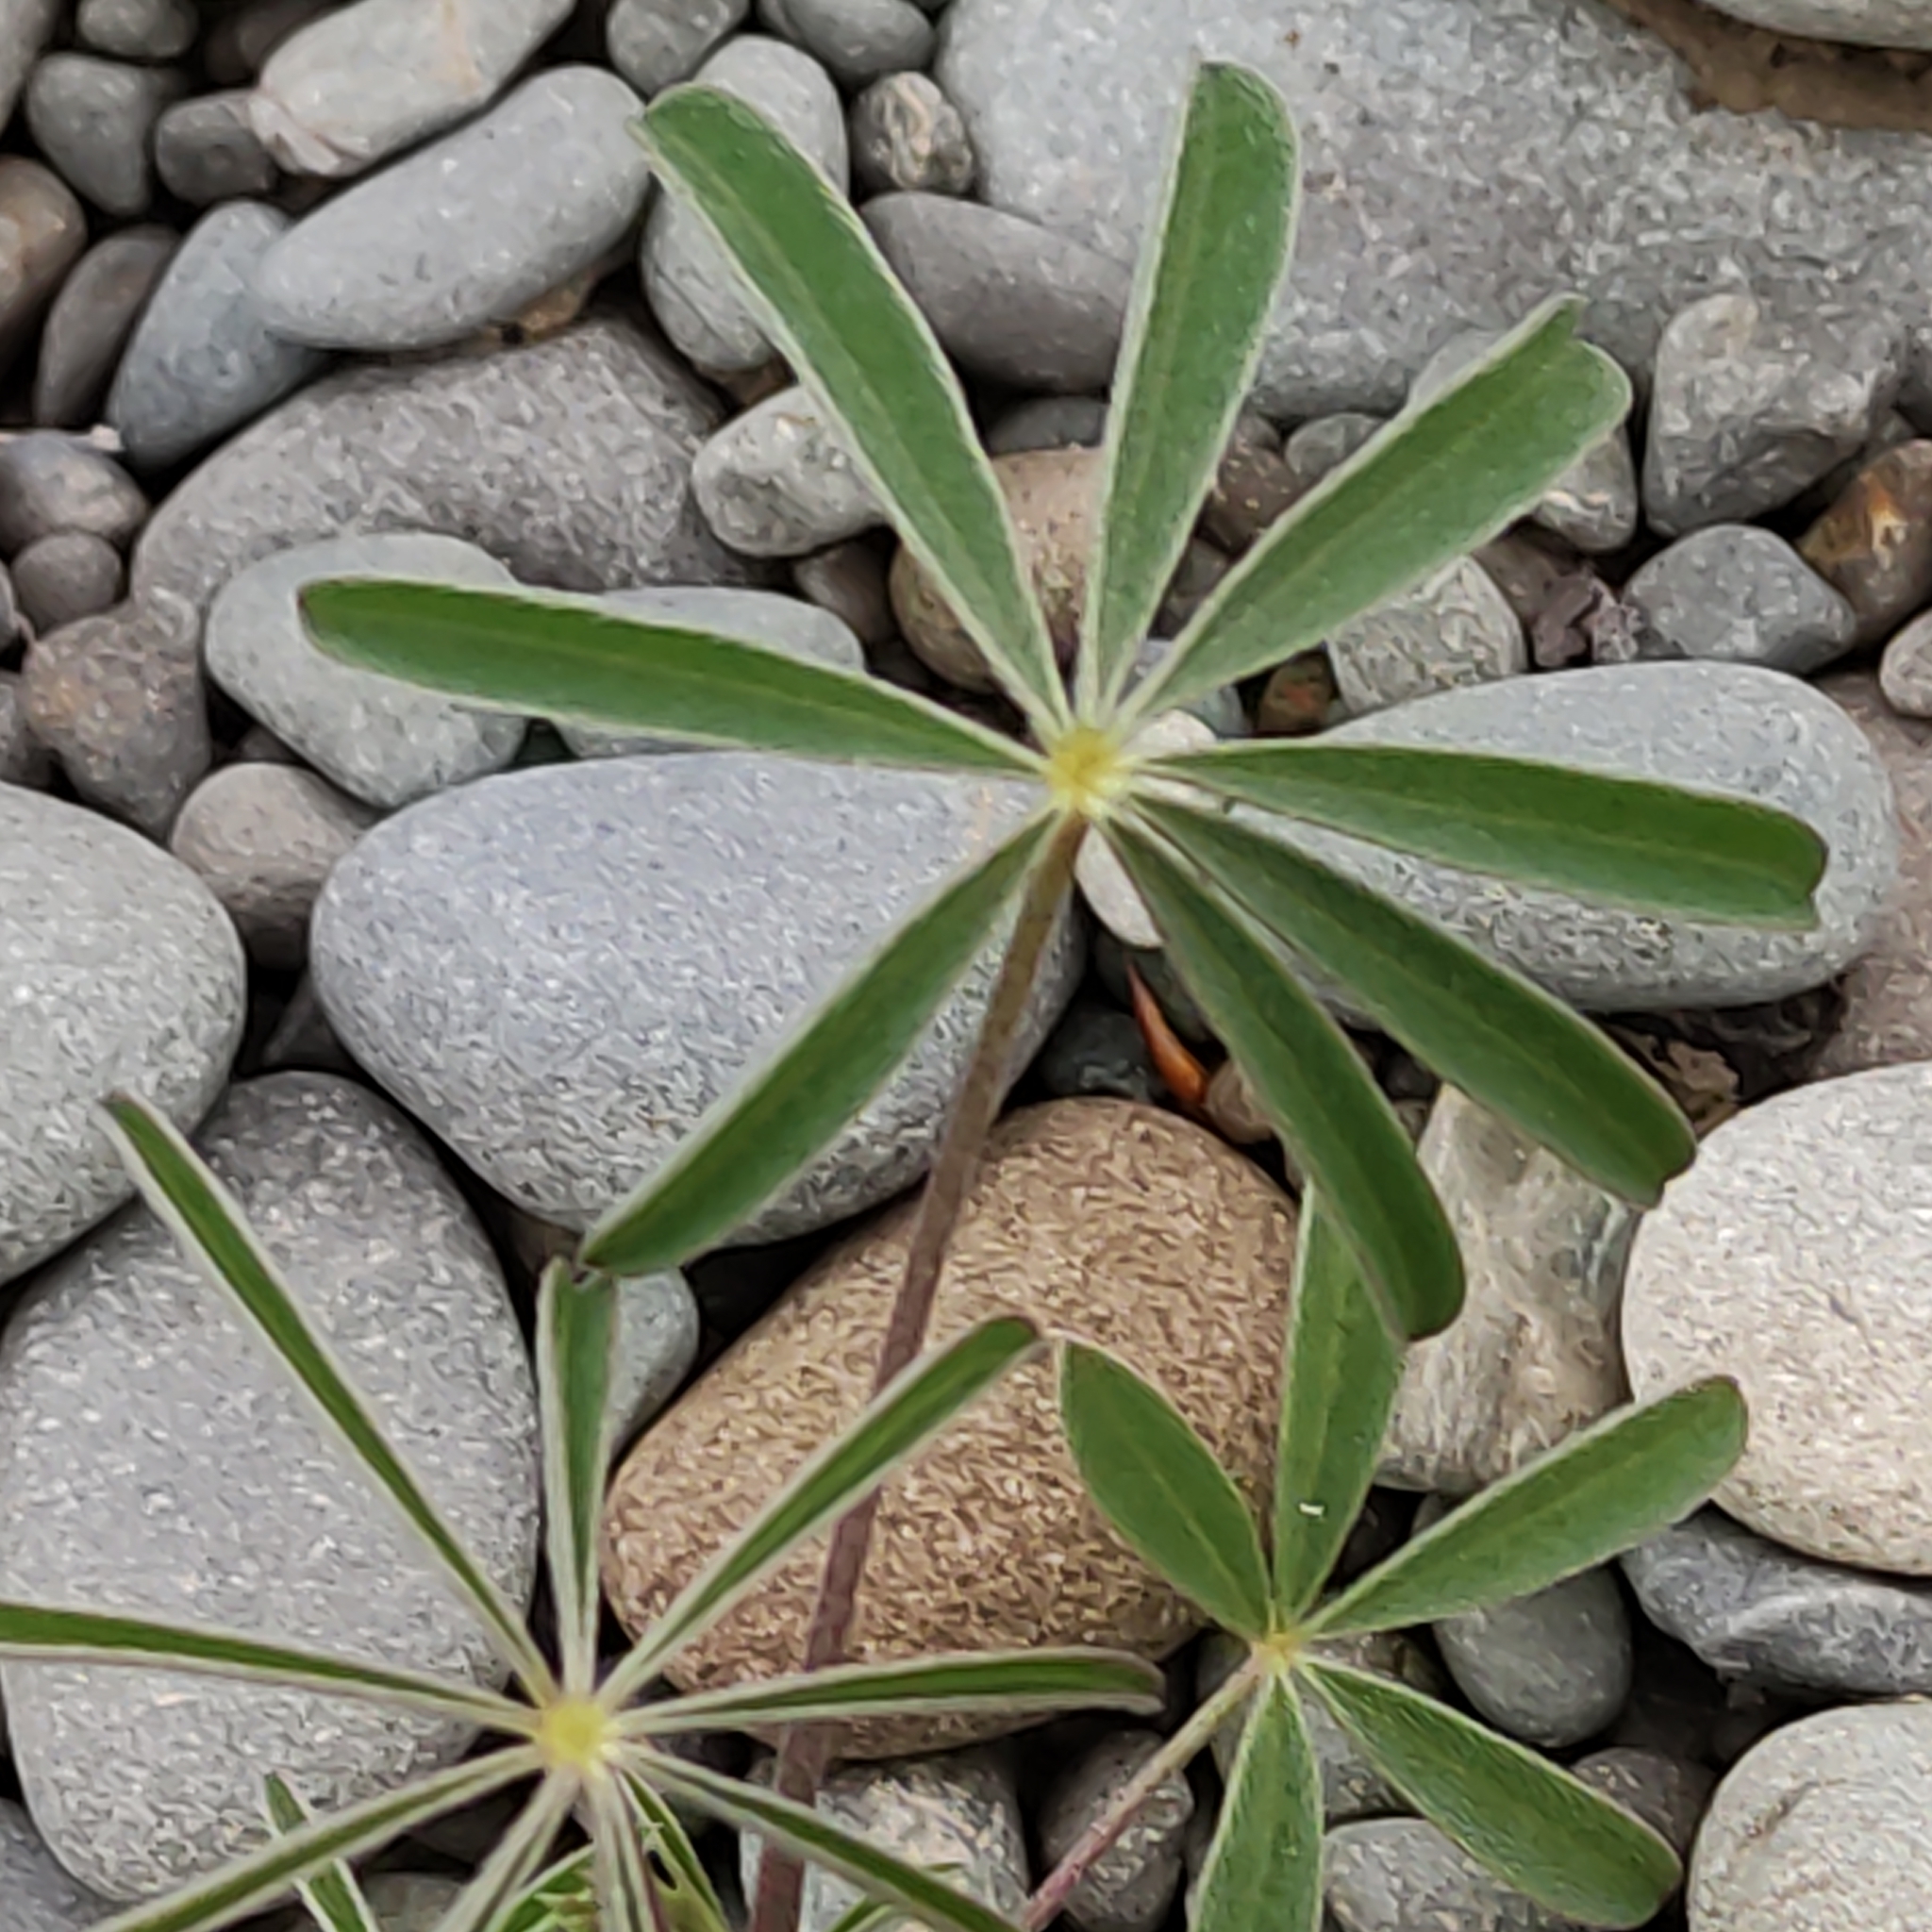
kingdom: Plantae
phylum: Tracheophyta
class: Magnoliopsida
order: Fabales
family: Fabaceae
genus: Lupinus
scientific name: Lupinus arboreus
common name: Yellow bush lupine
